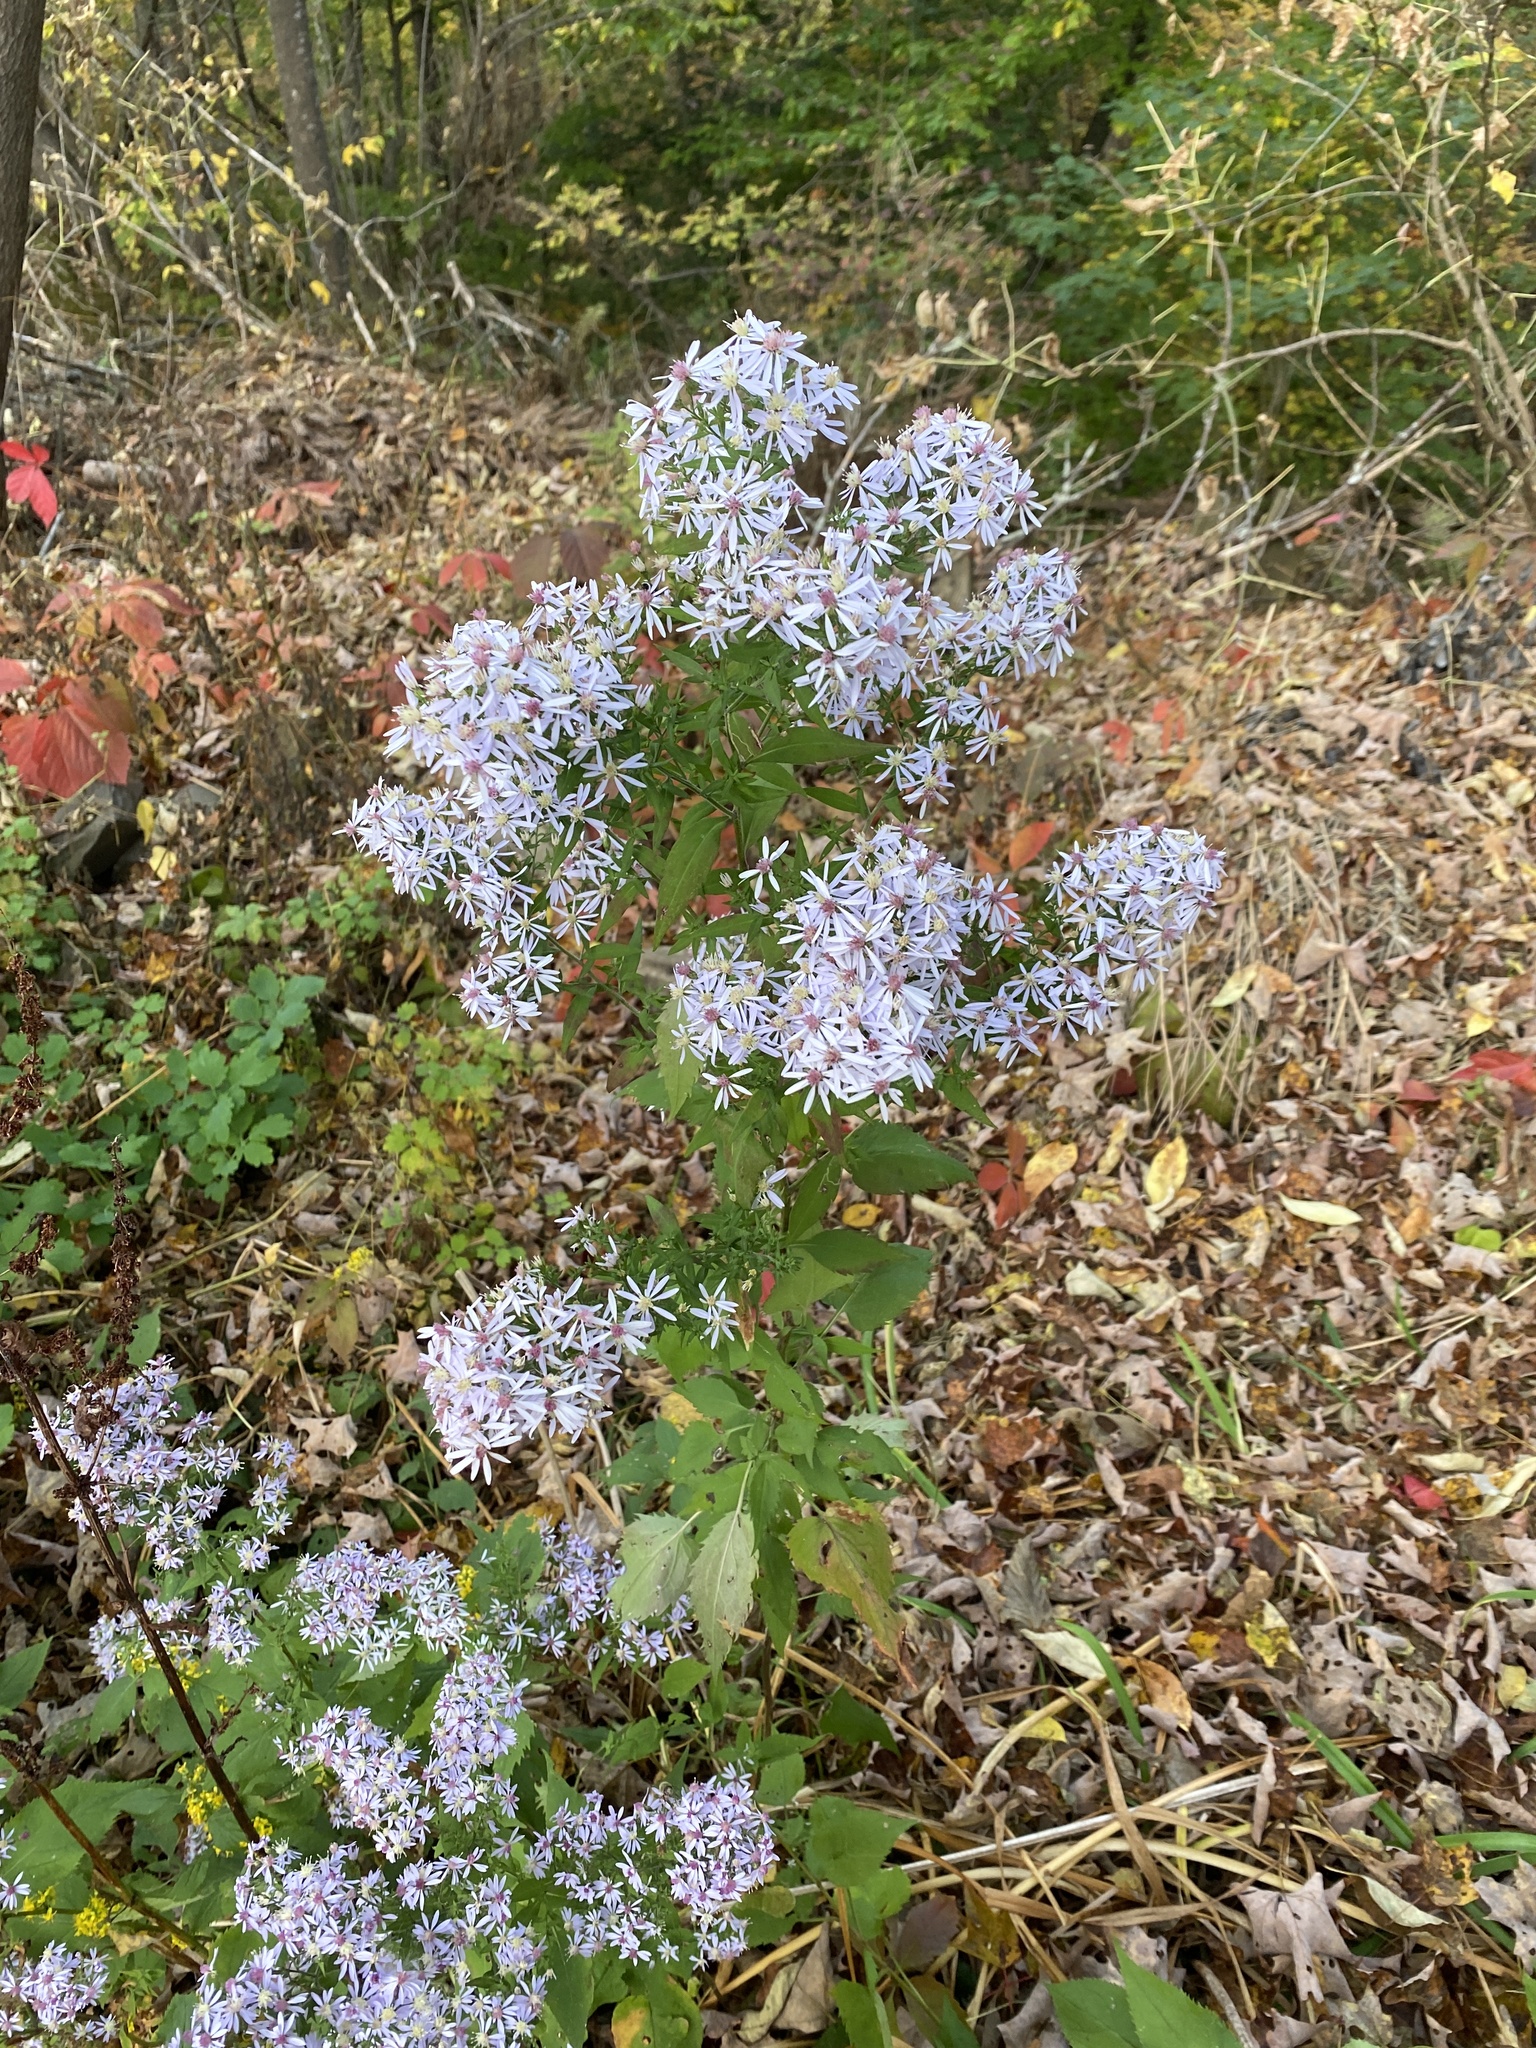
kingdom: Plantae
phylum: Tracheophyta
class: Magnoliopsida
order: Asterales
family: Asteraceae
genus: Symphyotrichum
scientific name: Symphyotrichum cordifolium
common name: Beeweed
